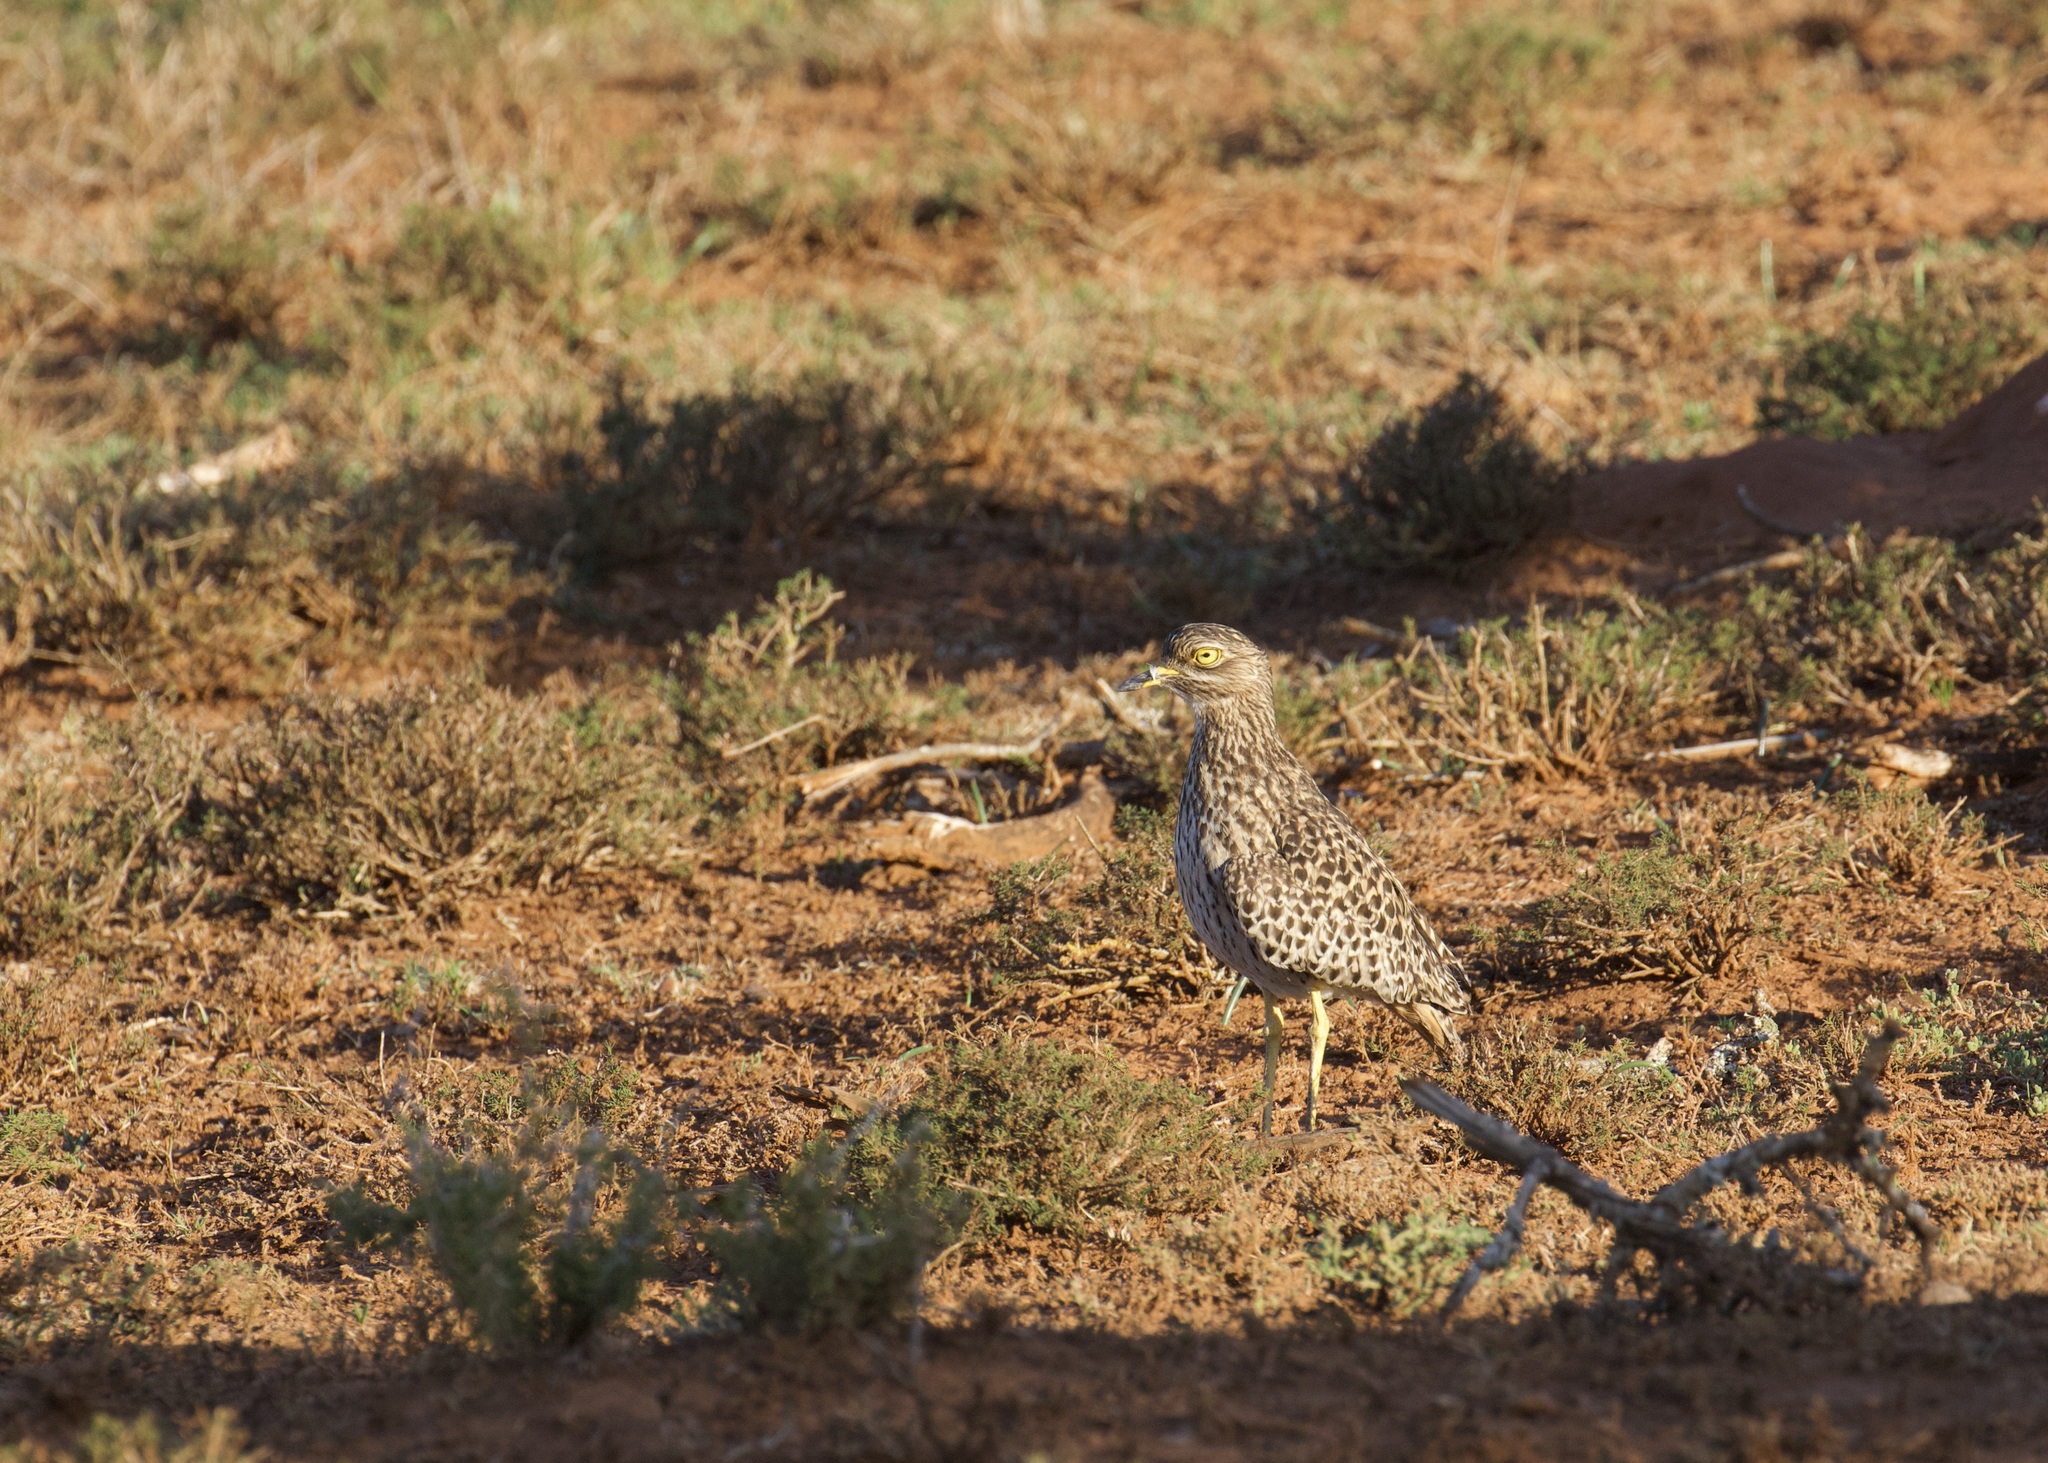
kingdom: Animalia
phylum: Chordata
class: Aves
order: Charadriiformes
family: Burhinidae
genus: Burhinus
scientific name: Burhinus capensis
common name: Spotted thick-knee
